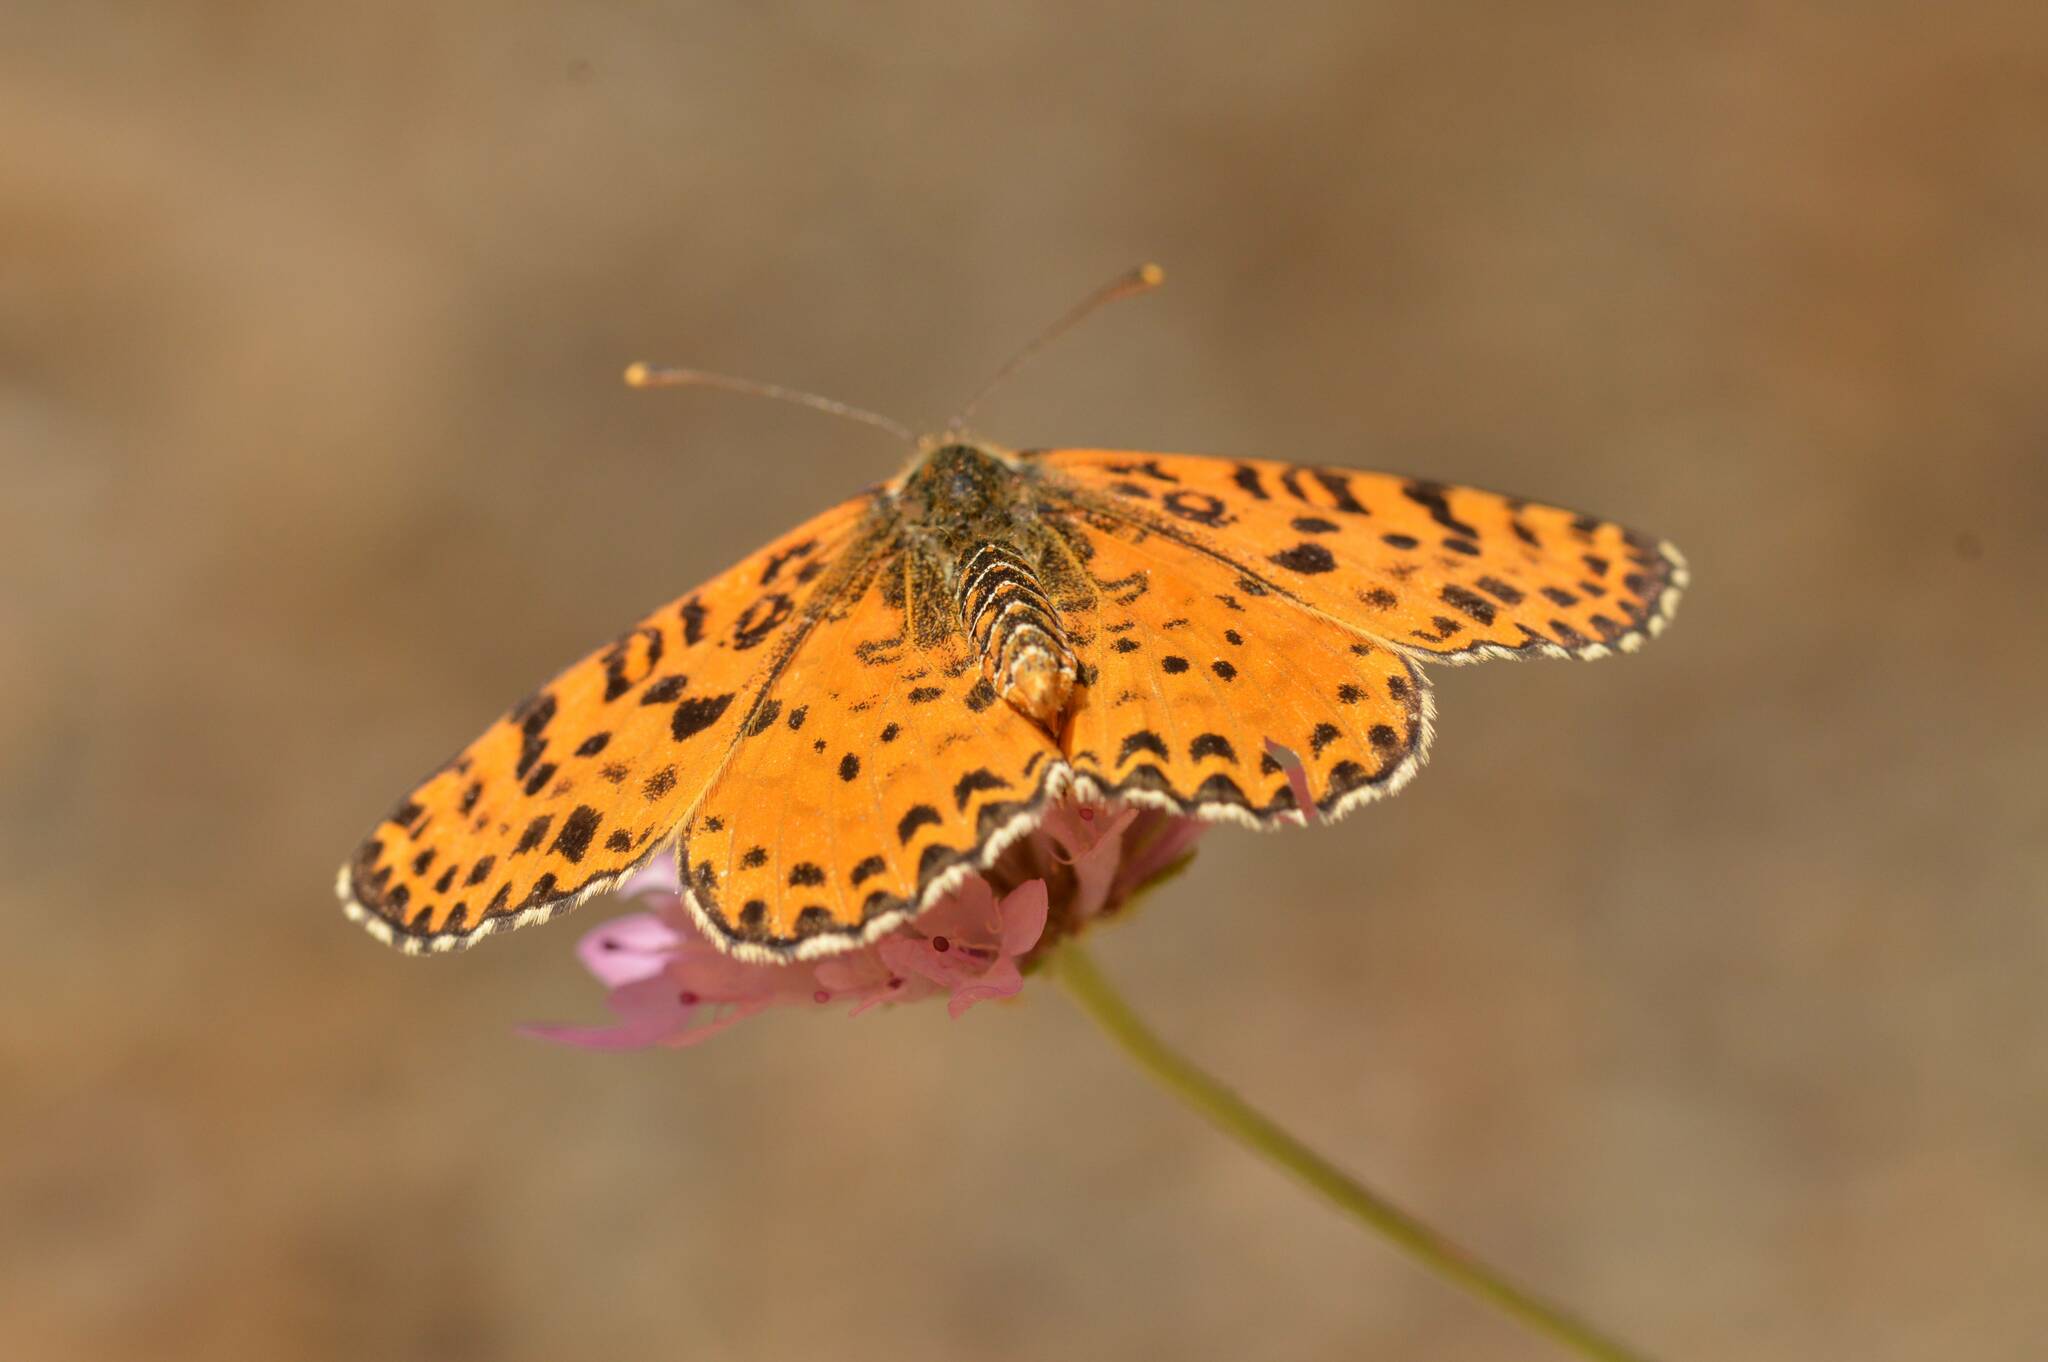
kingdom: Animalia
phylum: Arthropoda
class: Insecta
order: Lepidoptera
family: Nymphalidae
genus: Melitaea
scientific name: Melitaea didyma
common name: Spotted fritillary
